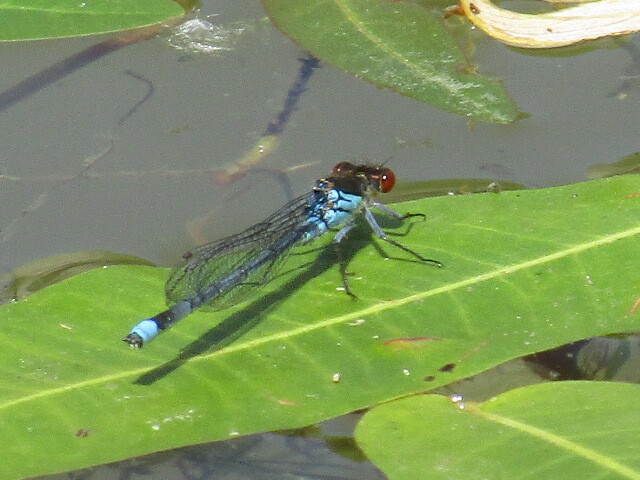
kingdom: Animalia
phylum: Arthropoda
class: Insecta
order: Odonata
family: Coenagrionidae
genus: Erythromma
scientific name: Erythromma najas
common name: Red-eyed damselfly
